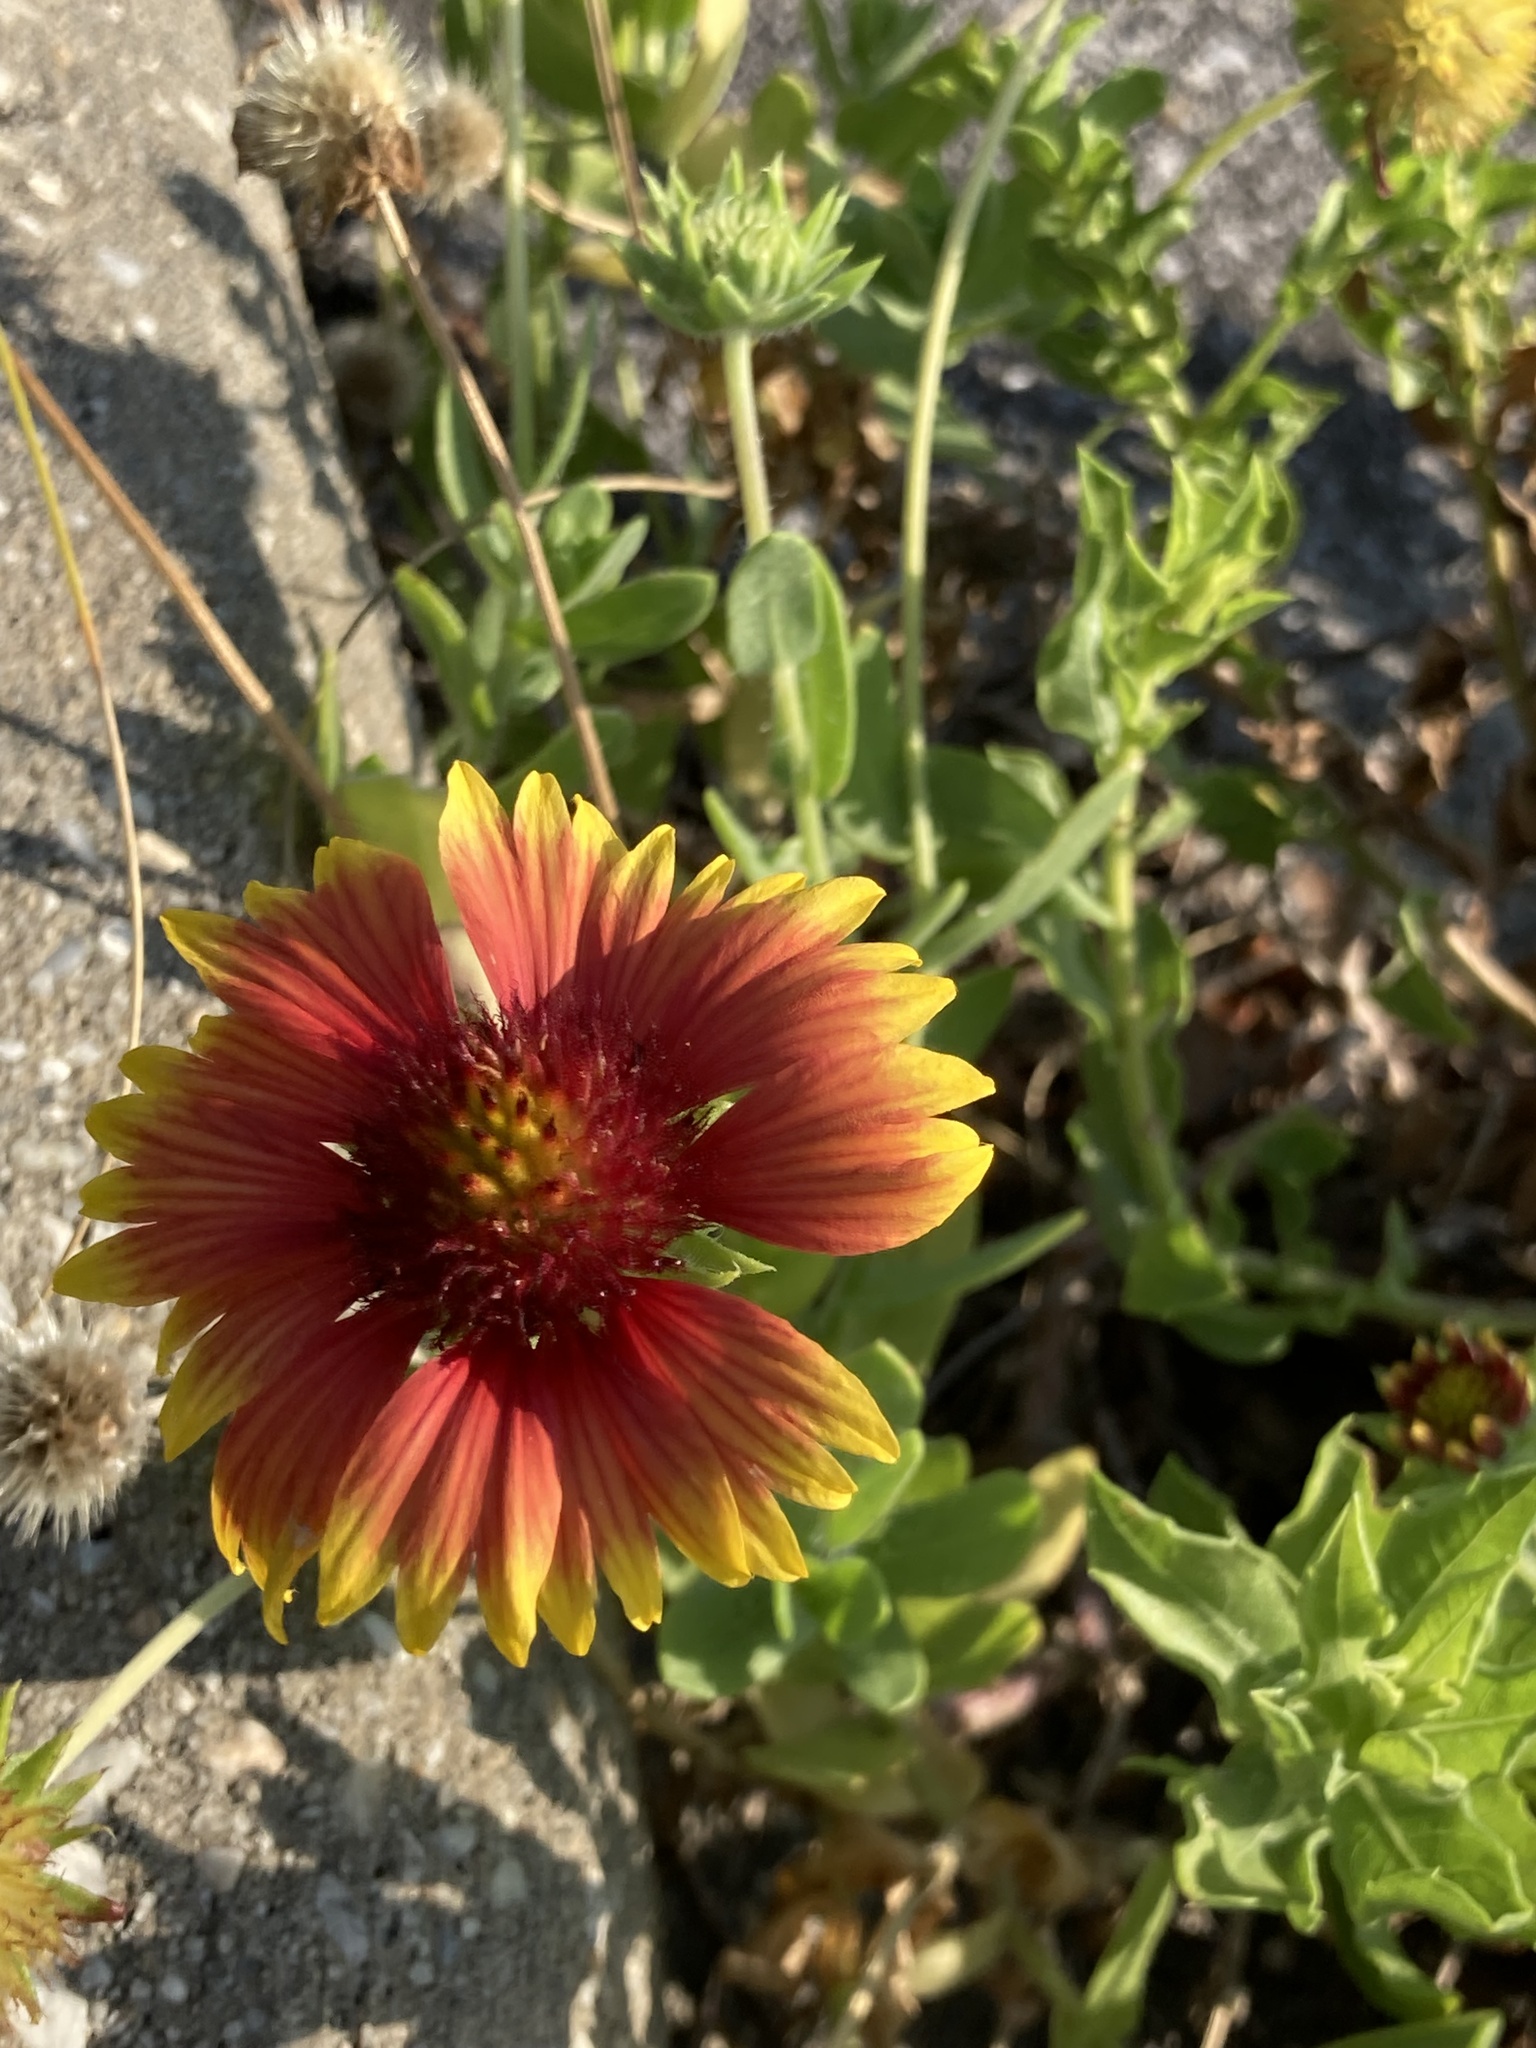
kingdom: Plantae
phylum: Tracheophyta
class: Magnoliopsida
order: Asterales
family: Asteraceae
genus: Gaillardia
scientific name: Gaillardia pulchella
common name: Firewheel
